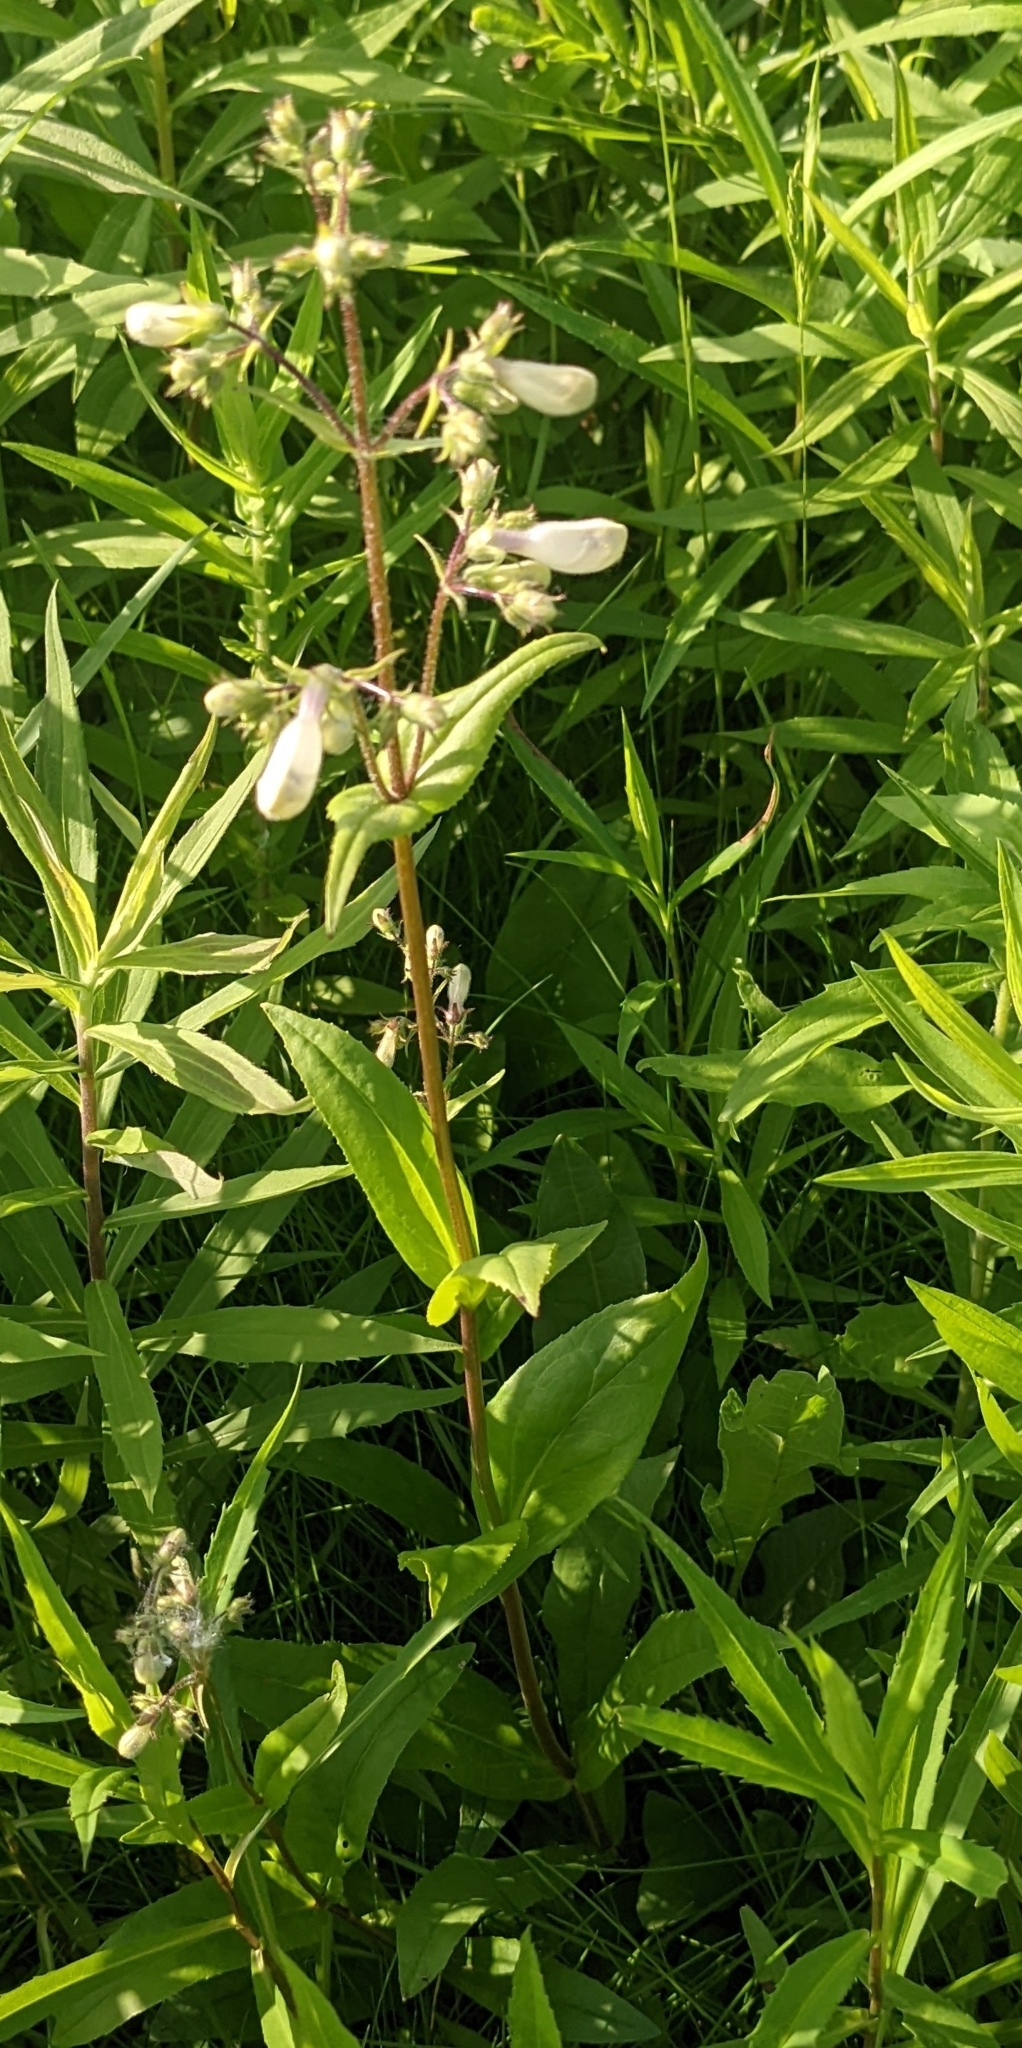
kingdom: Plantae
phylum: Tracheophyta
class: Magnoliopsida
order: Lamiales
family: Plantaginaceae
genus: Penstemon
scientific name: Penstemon digitalis
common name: Foxglove beardtongue
